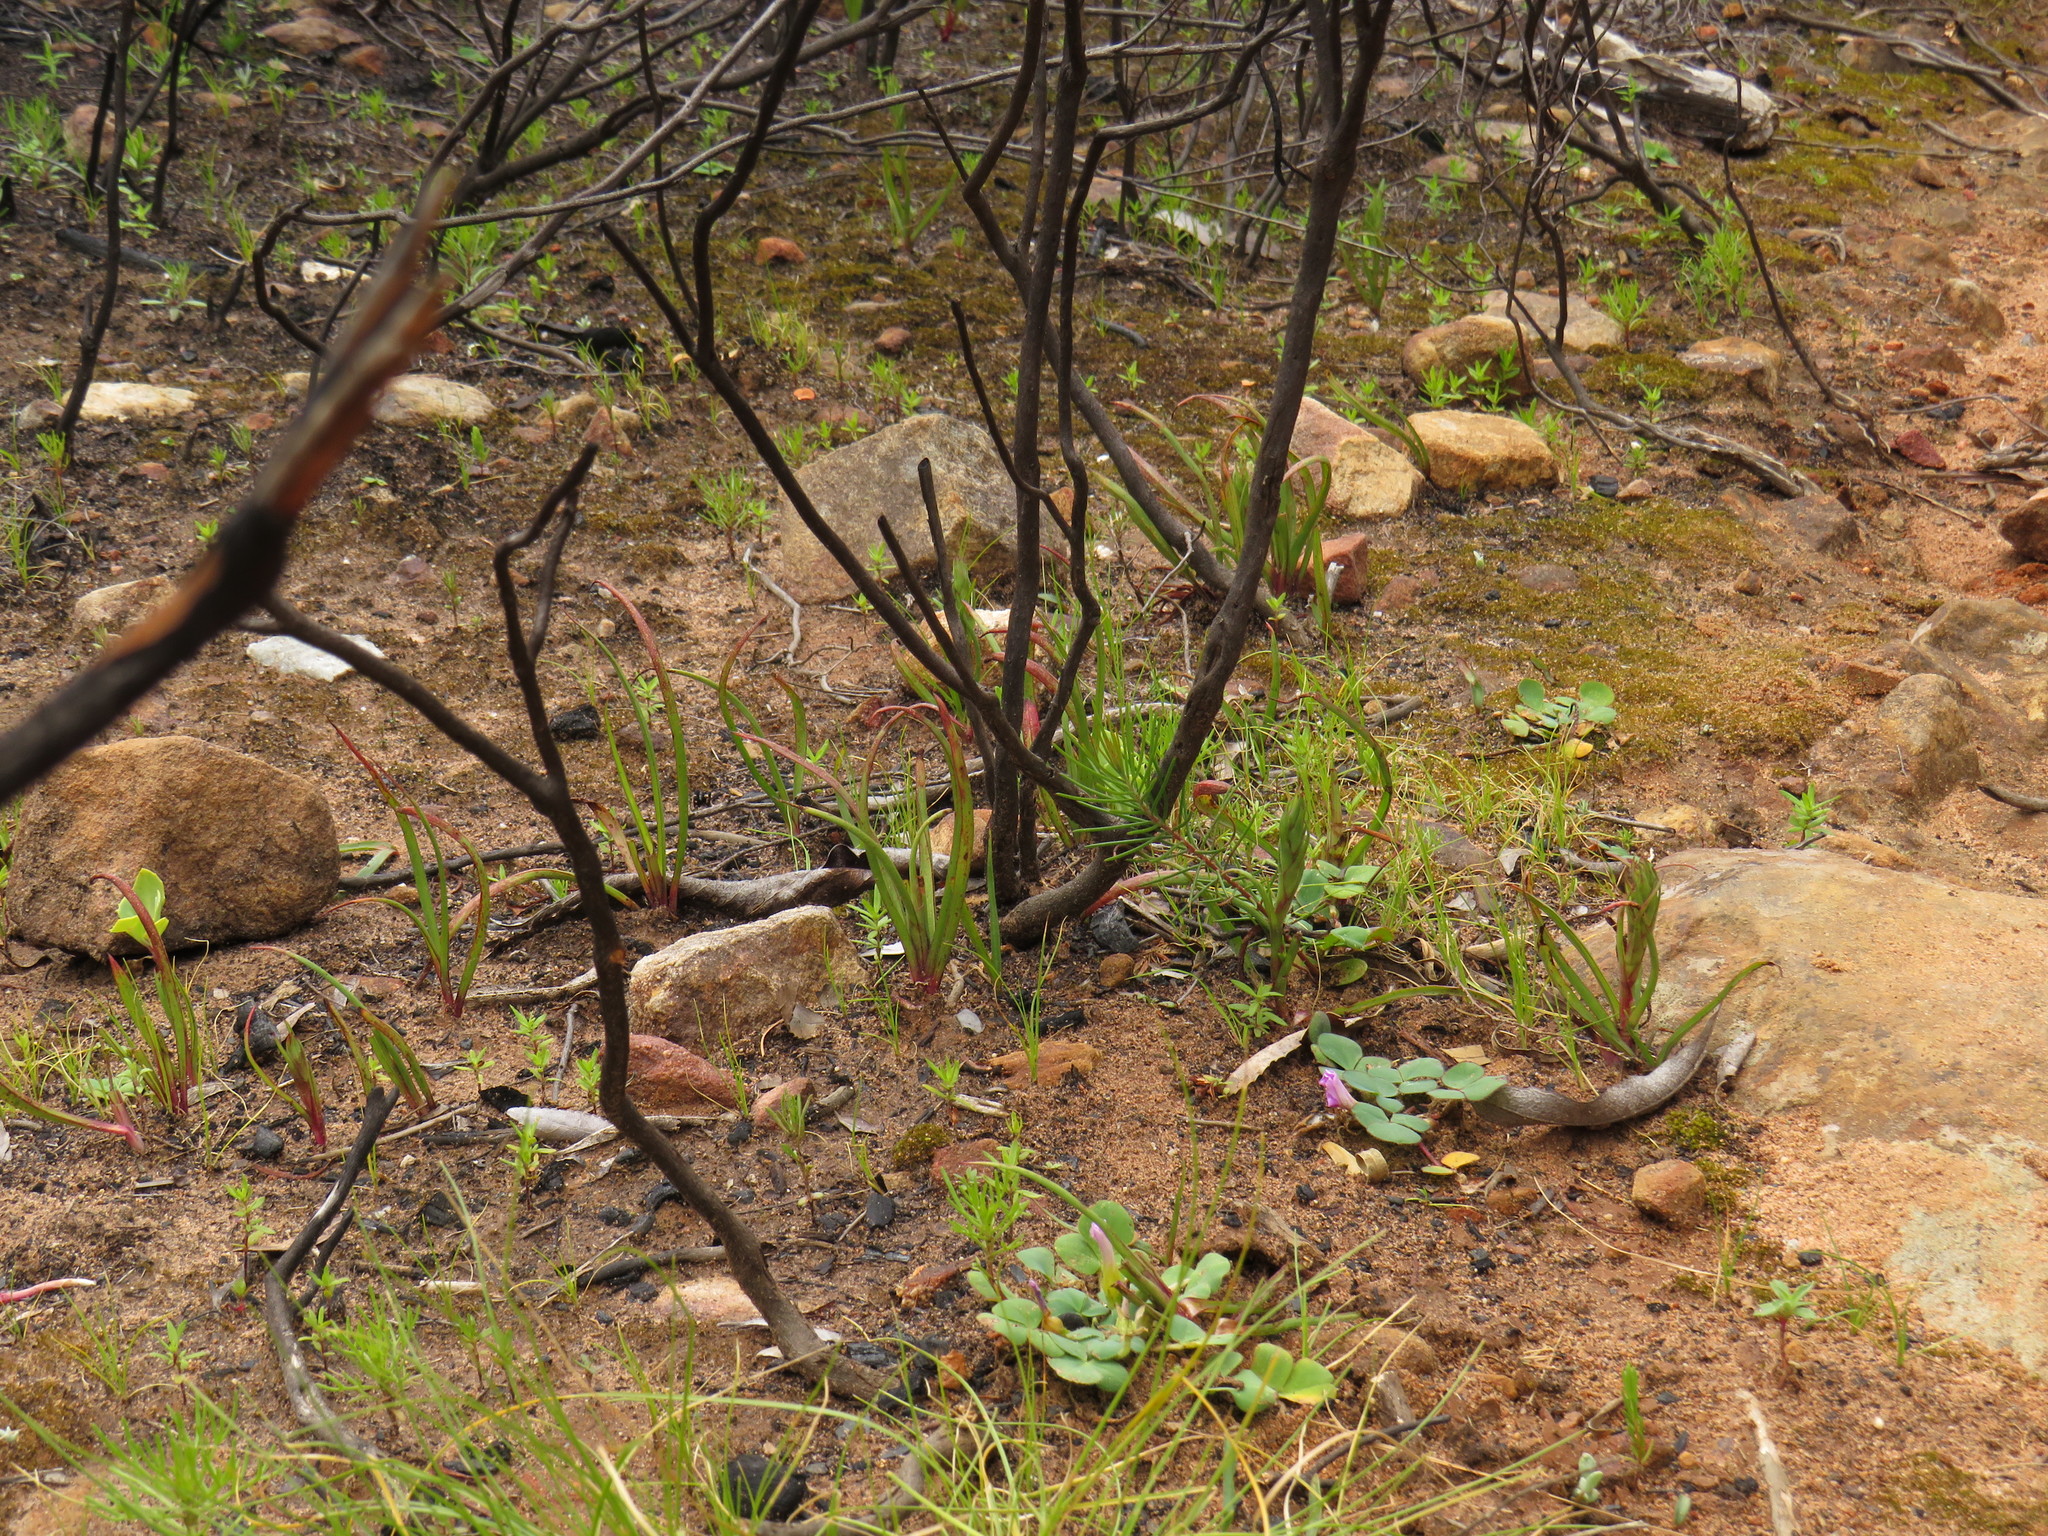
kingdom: Plantae
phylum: Tracheophyta
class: Liliopsida
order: Asparagales
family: Orchidaceae
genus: Disa
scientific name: Disa bracteata
